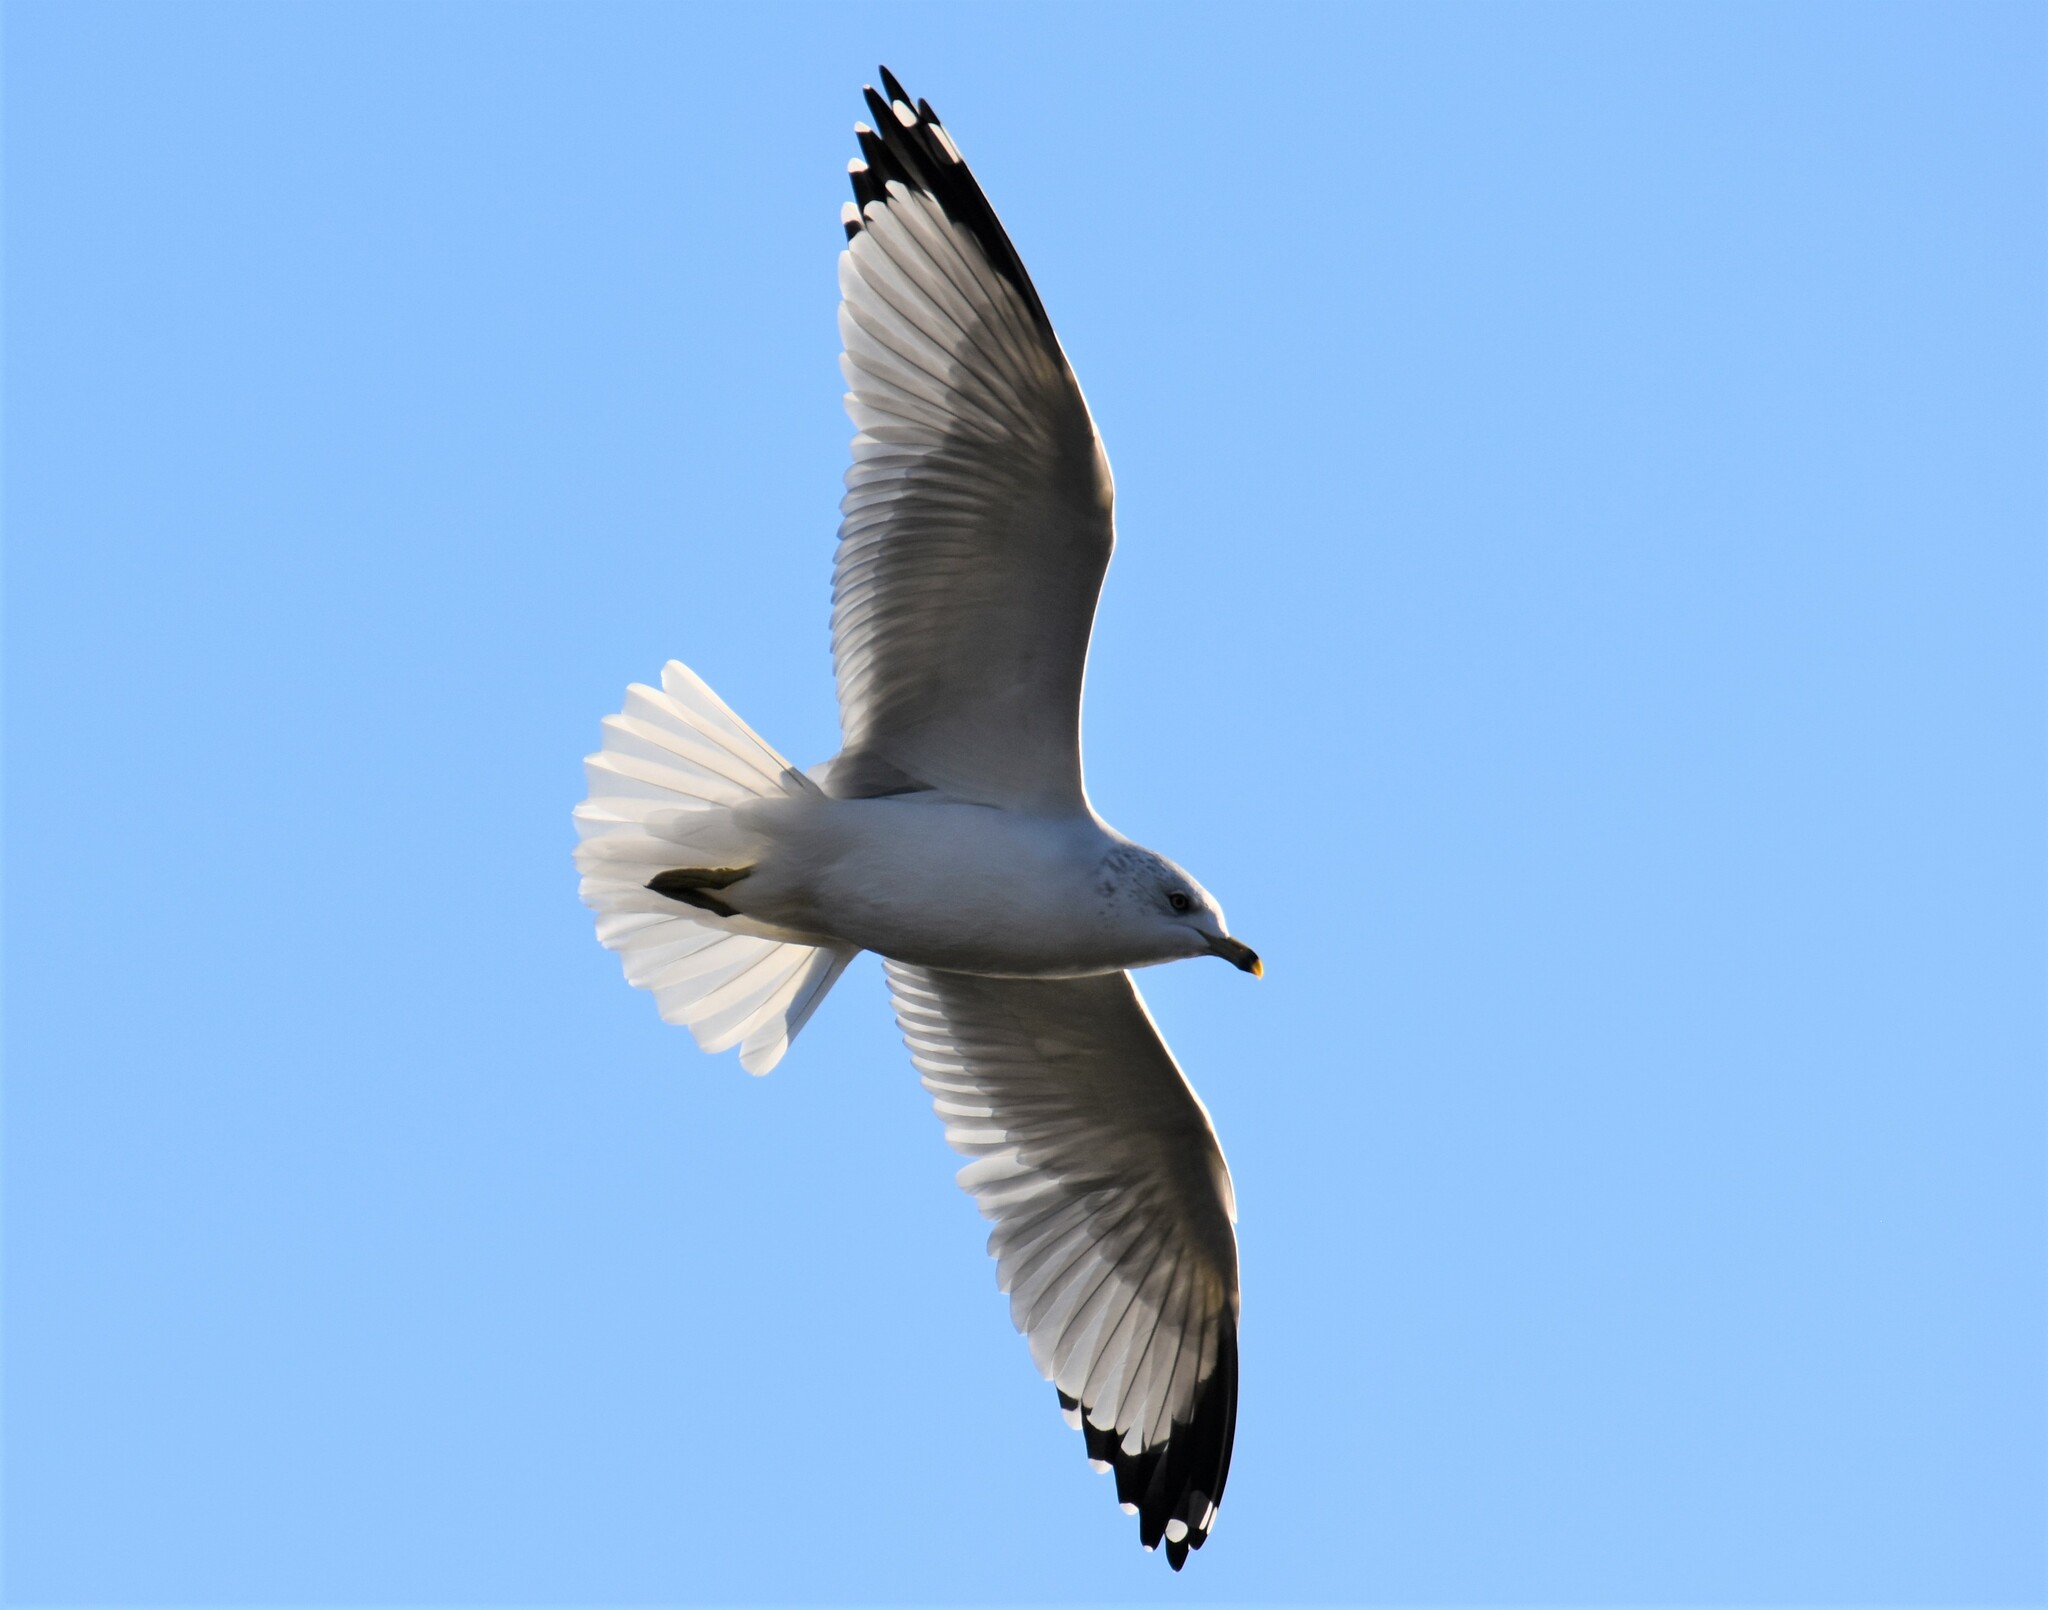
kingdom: Animalia
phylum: Chordata
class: Aves
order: Charadriiformes
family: Laridae
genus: Larus
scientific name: Larus delawarensis
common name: Ring-billed gull
